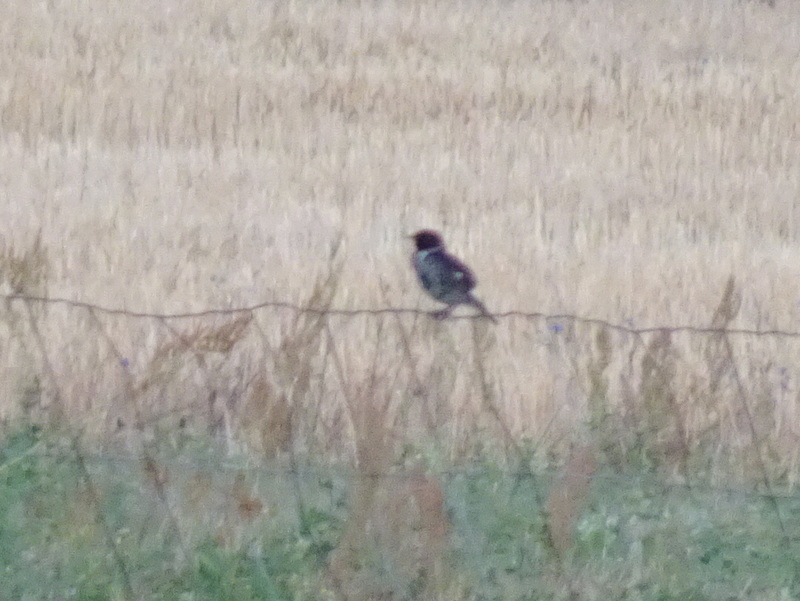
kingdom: Animalia
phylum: Chordata
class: Aves
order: Passeriformes
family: Muscicapidae
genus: Saxicola
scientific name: Saxicola rubicola
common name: European stonechat
